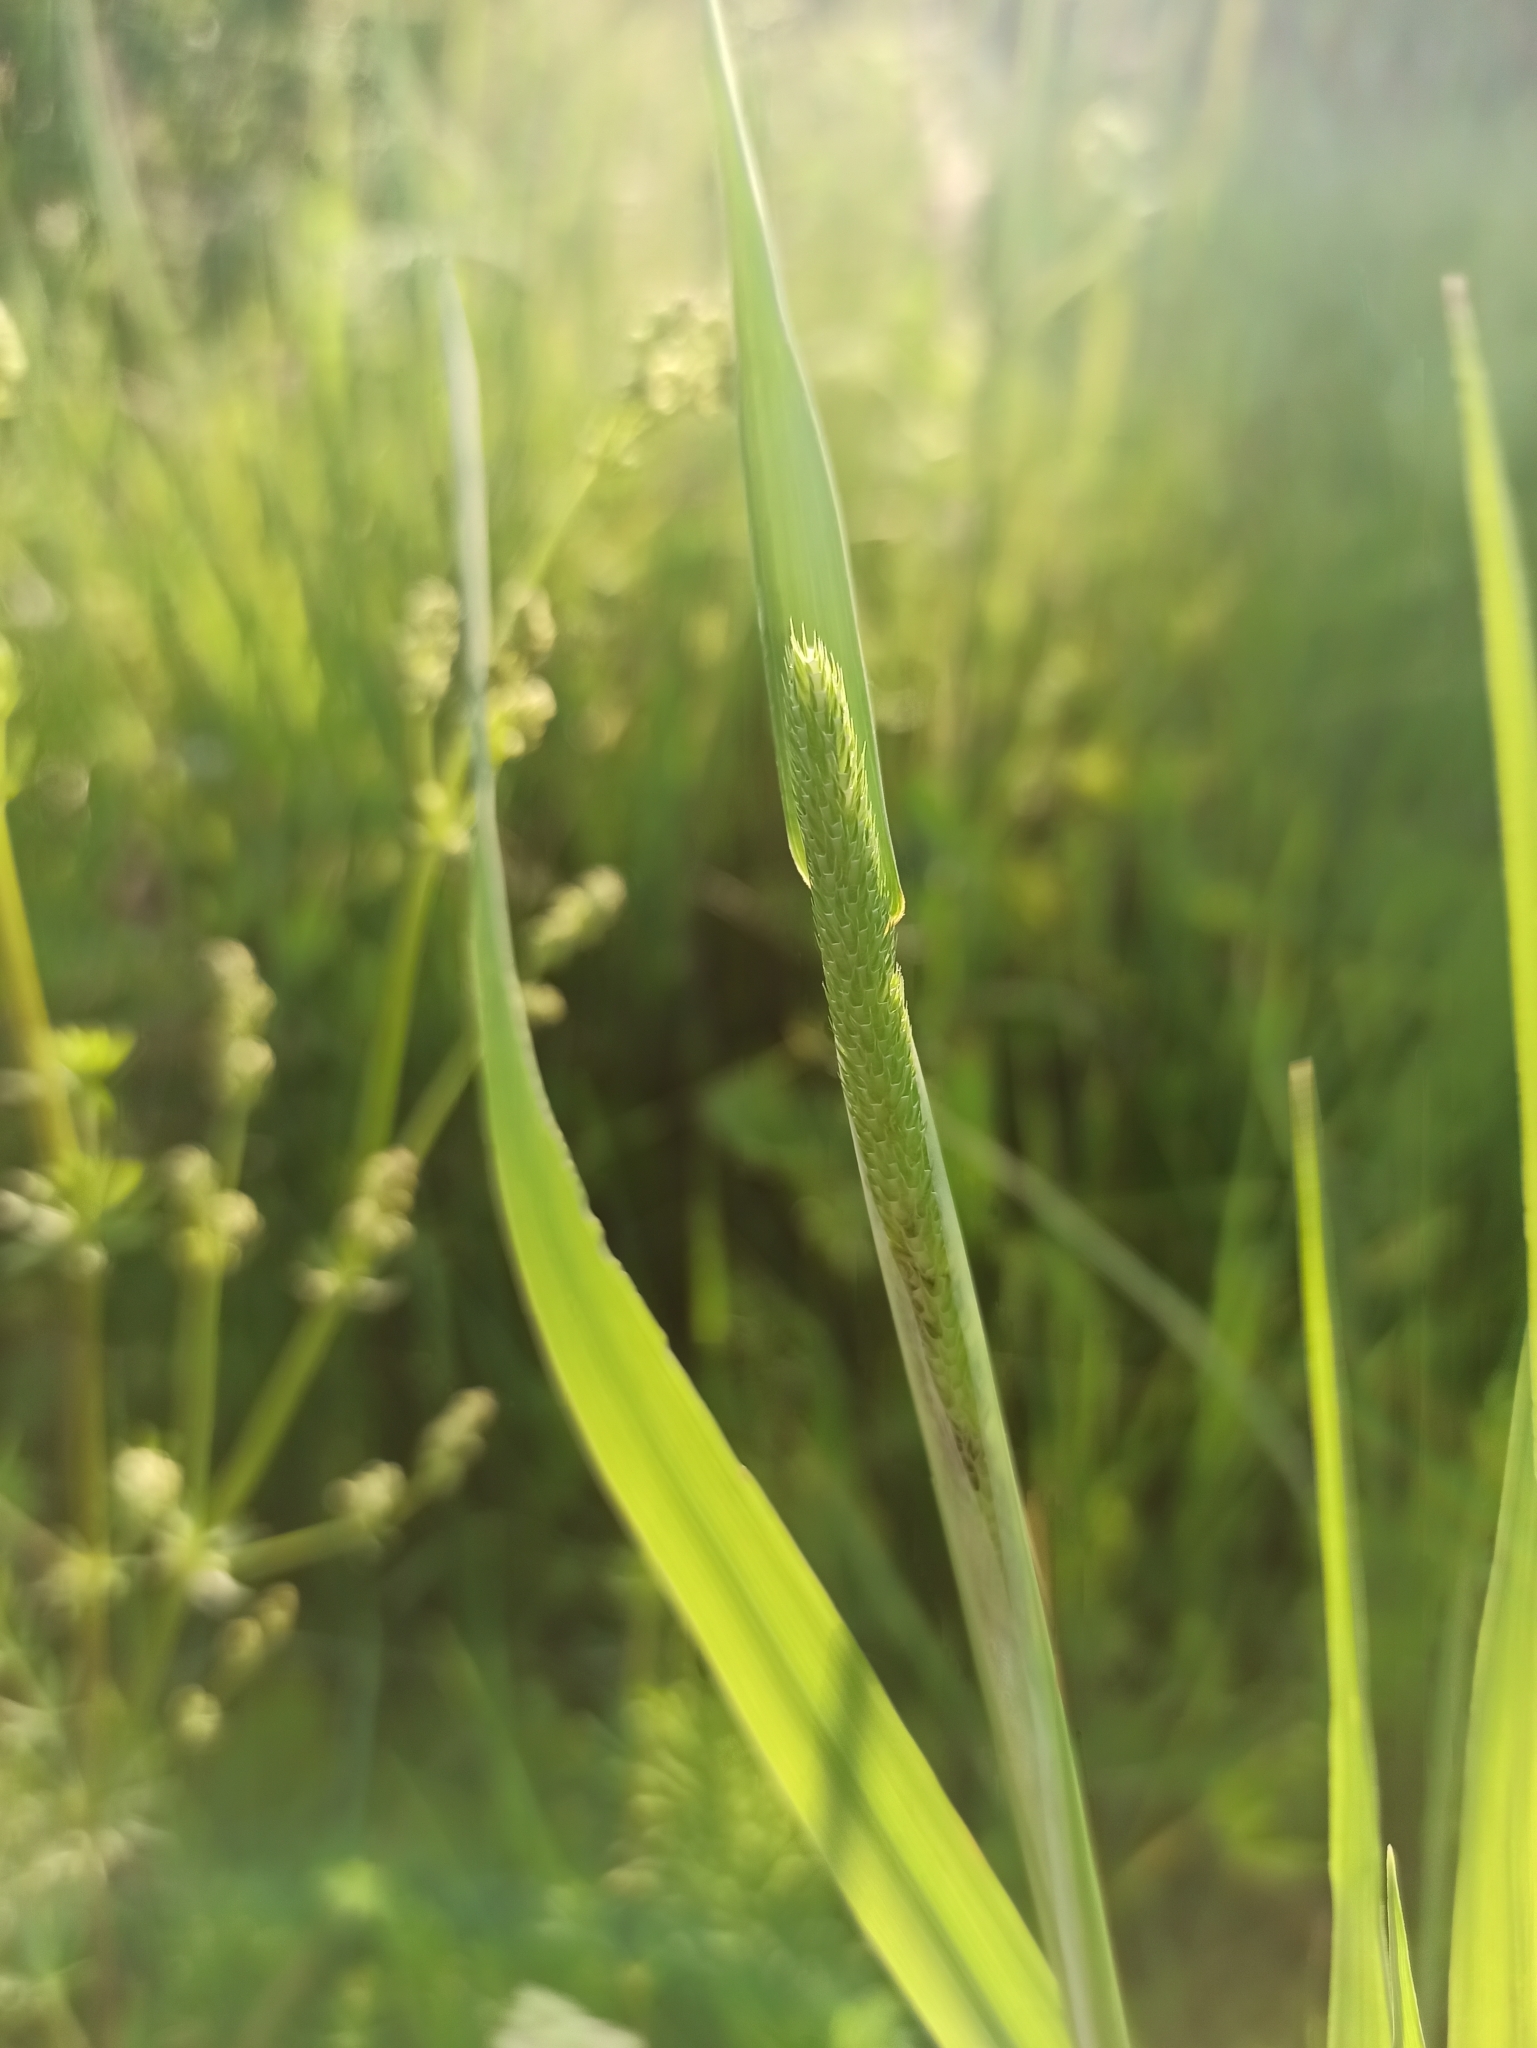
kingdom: Plantae
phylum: Tracheophyta
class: Liliopsida
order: Poales
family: Poaceae
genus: Phleum
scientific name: Phleum pratense
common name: Timothy grass
